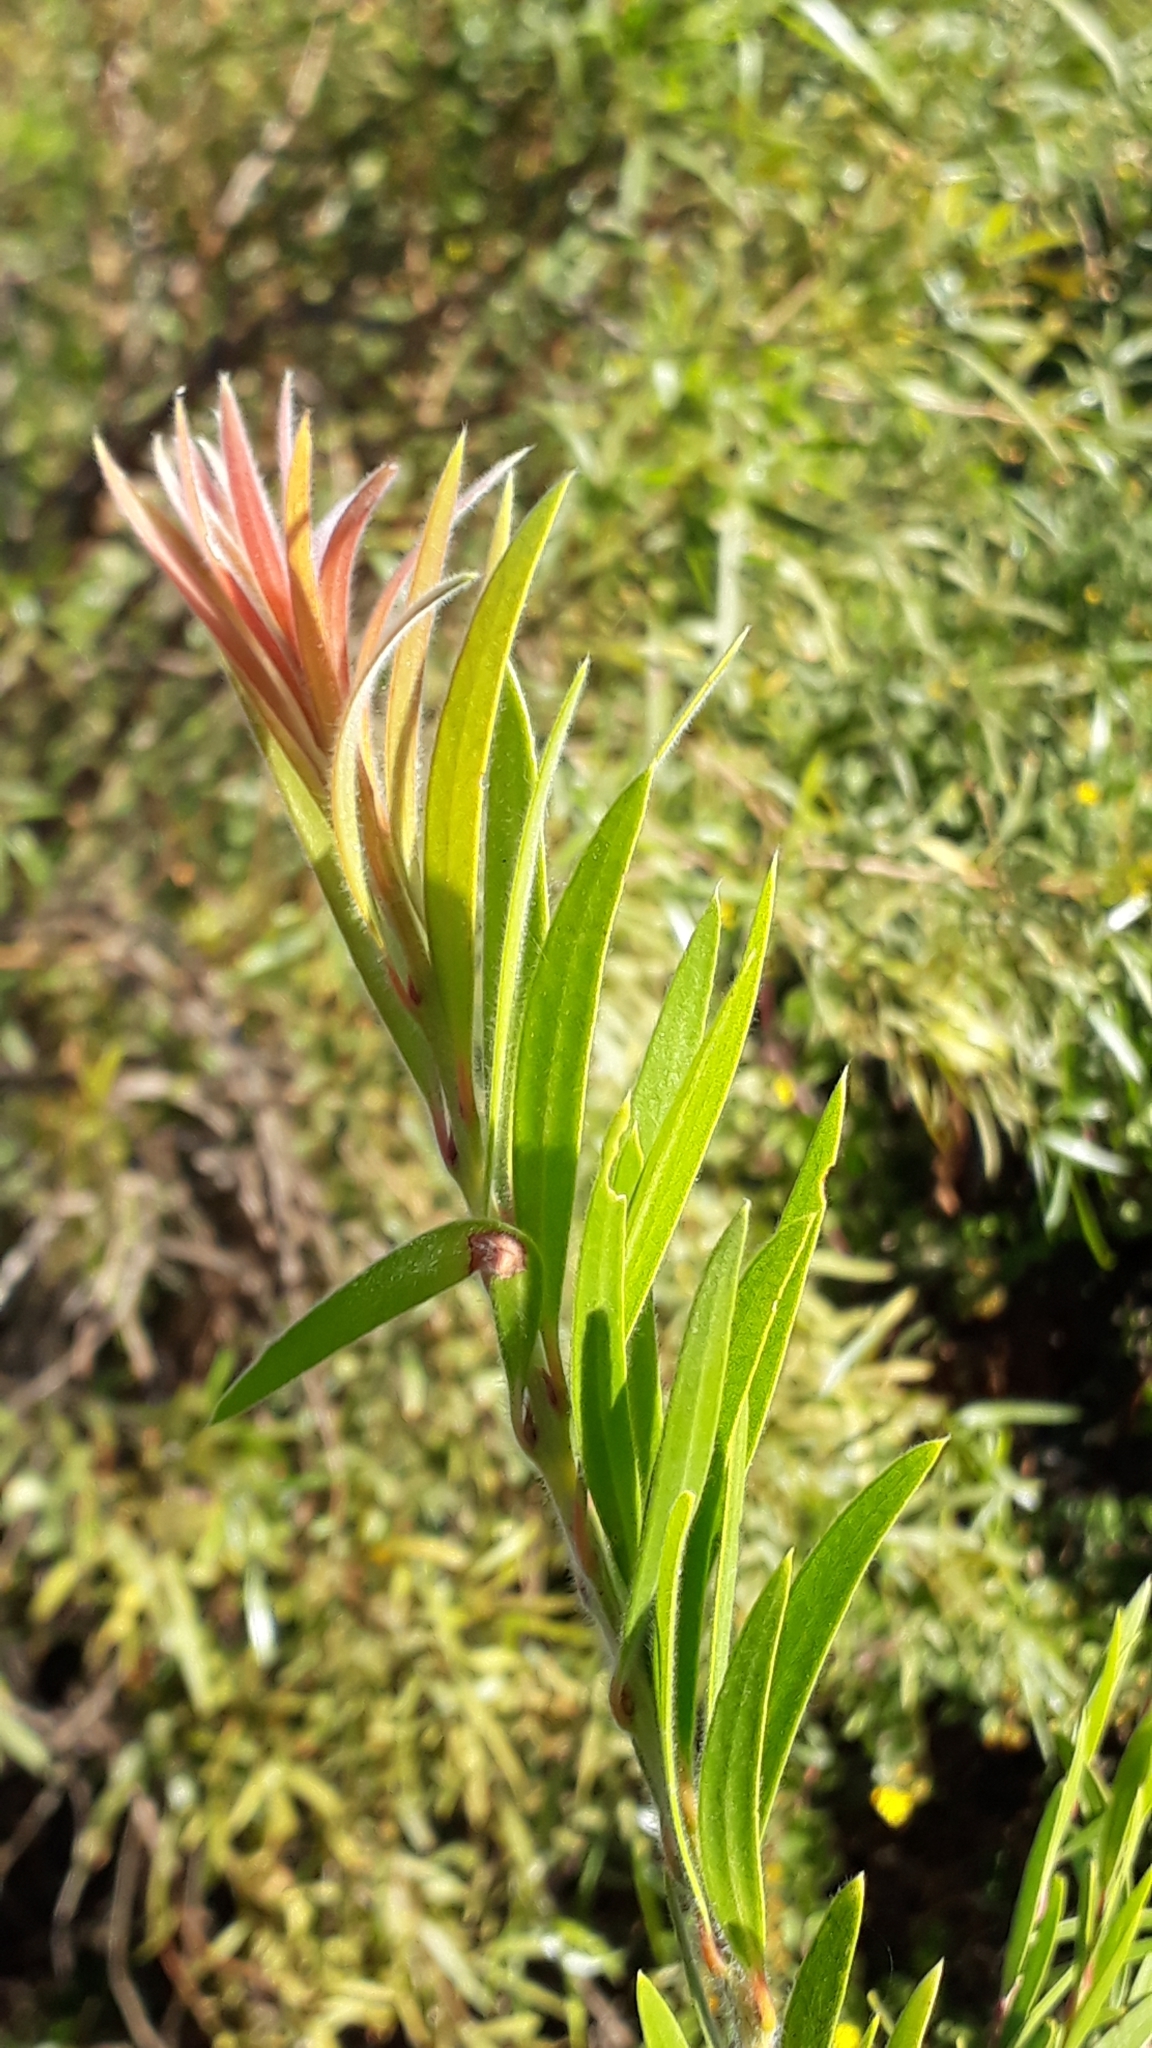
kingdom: Plantae
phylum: Tracheophyta
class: Magnoliopsida
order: Myrtales
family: Myrtaceae
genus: Callistemon
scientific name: Callistemon viminalis
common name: Drooping bottlebrush
